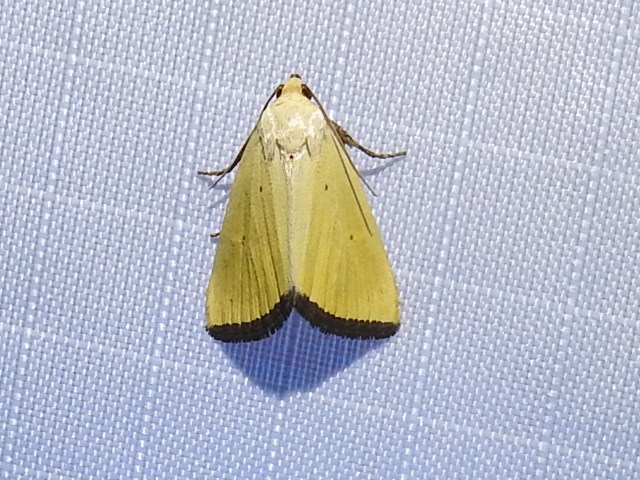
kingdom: Animalia
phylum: Arthropoda
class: Insecta
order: Lepidoptera
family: Noctuidae
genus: Marimatha
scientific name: Marimatha nigrofimbria
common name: Black-bordered lemon moth
